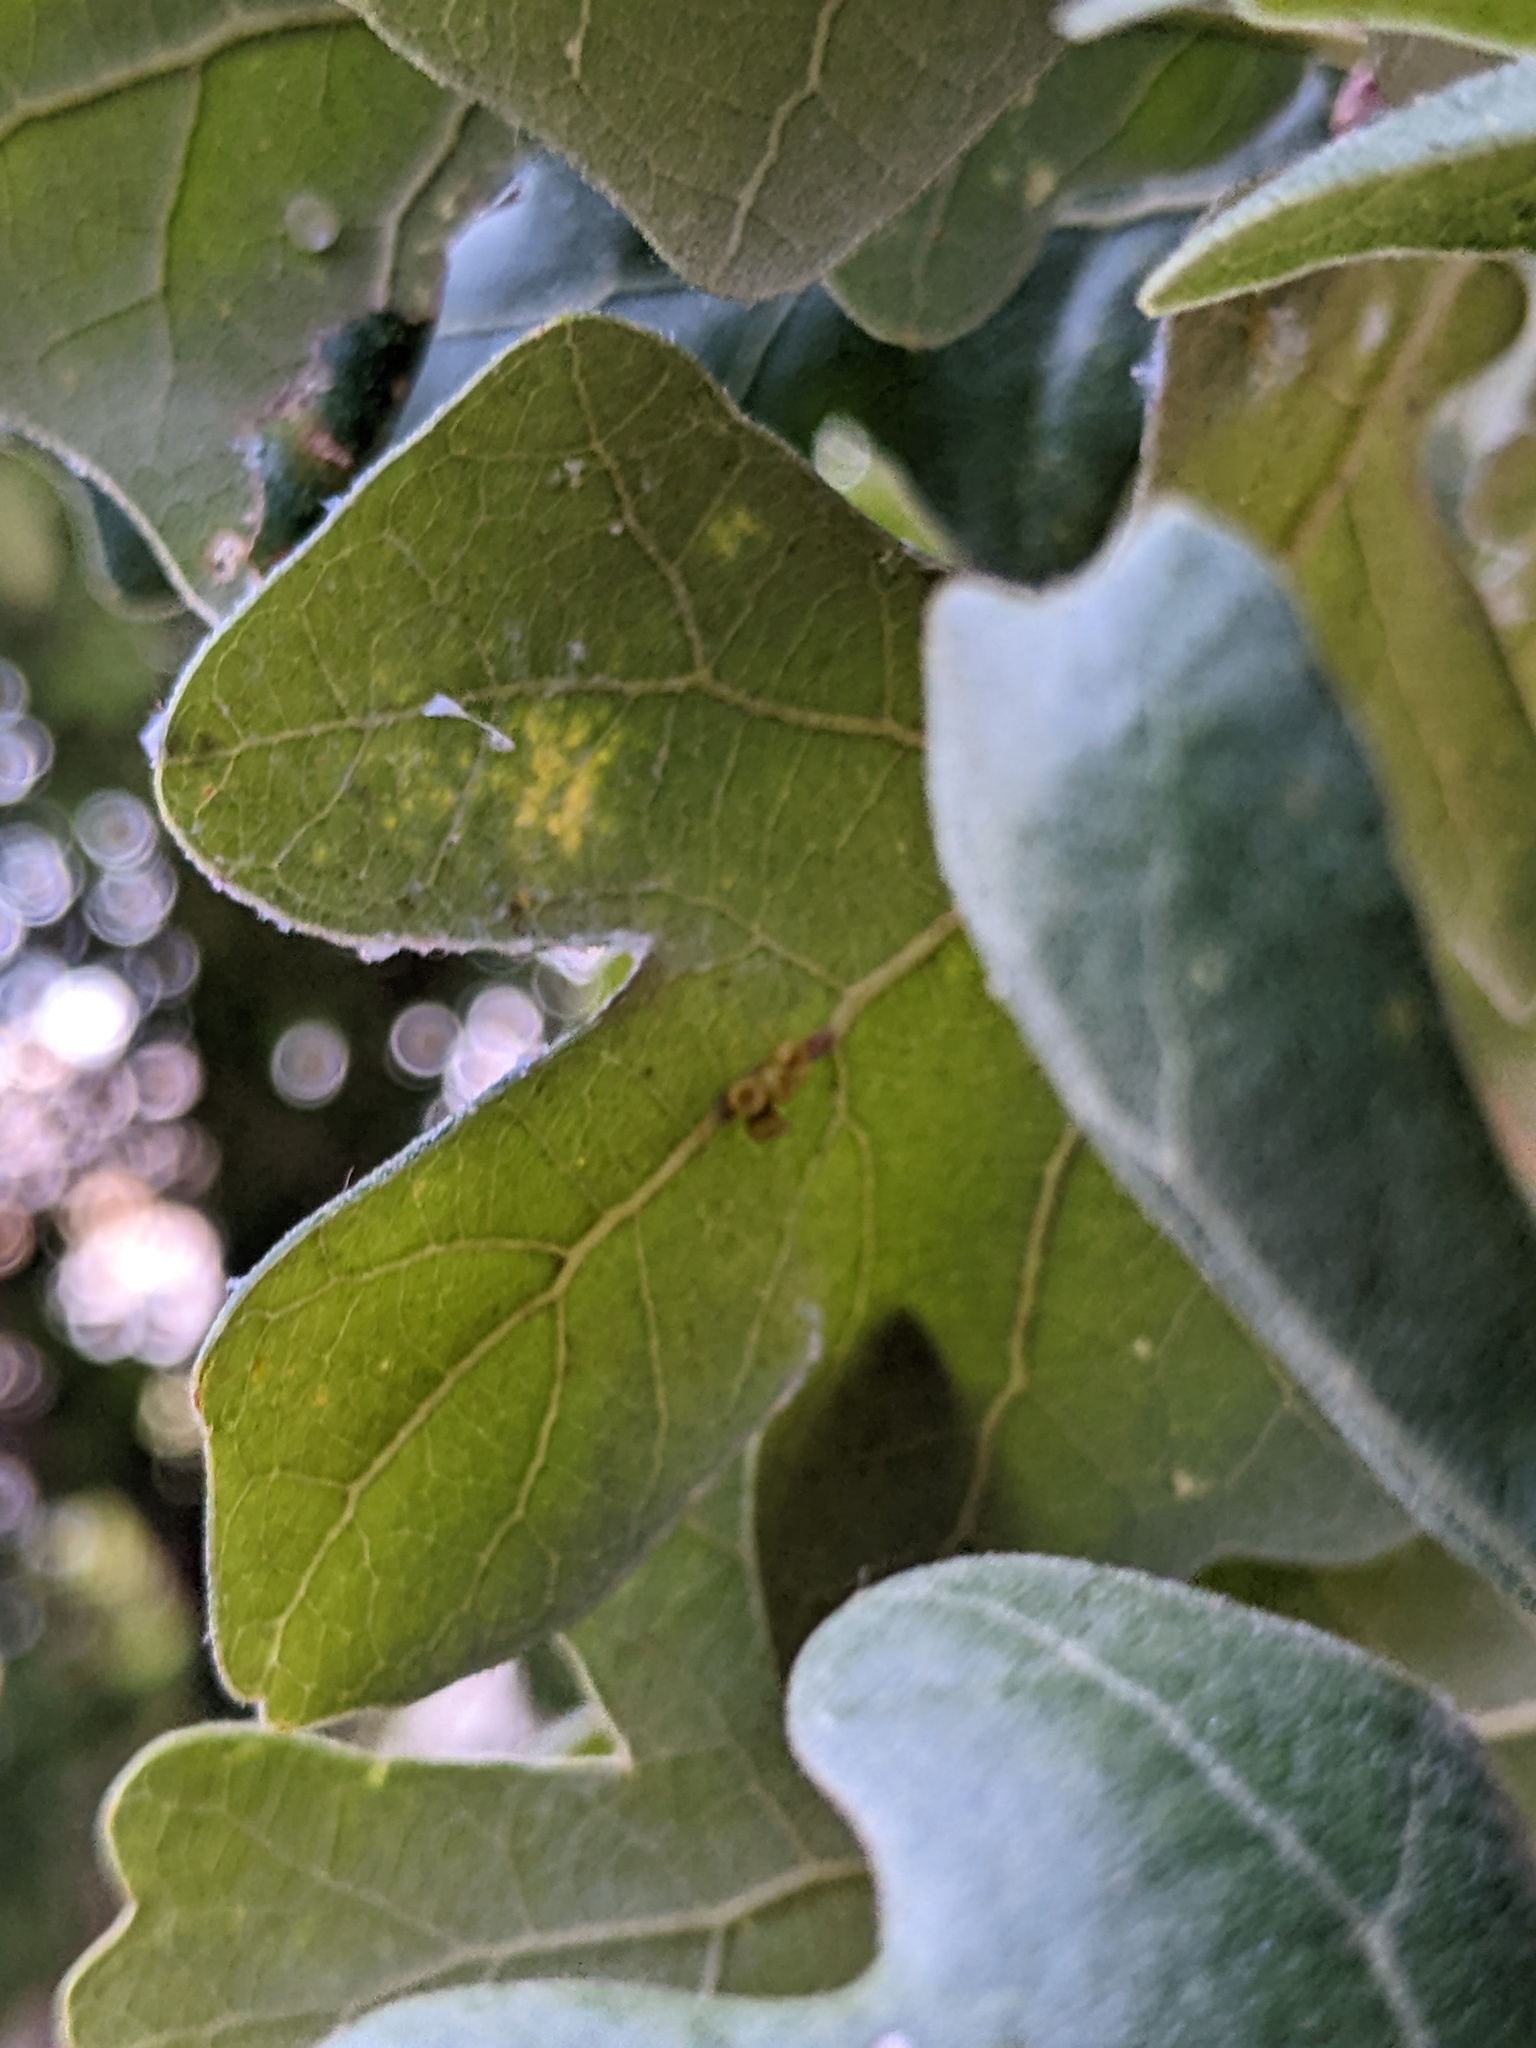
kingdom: Animalia
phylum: Arthropoda
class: Insecta
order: Hymenoptera
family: Cynipidae
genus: Andricus
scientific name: Andricus lustrans
